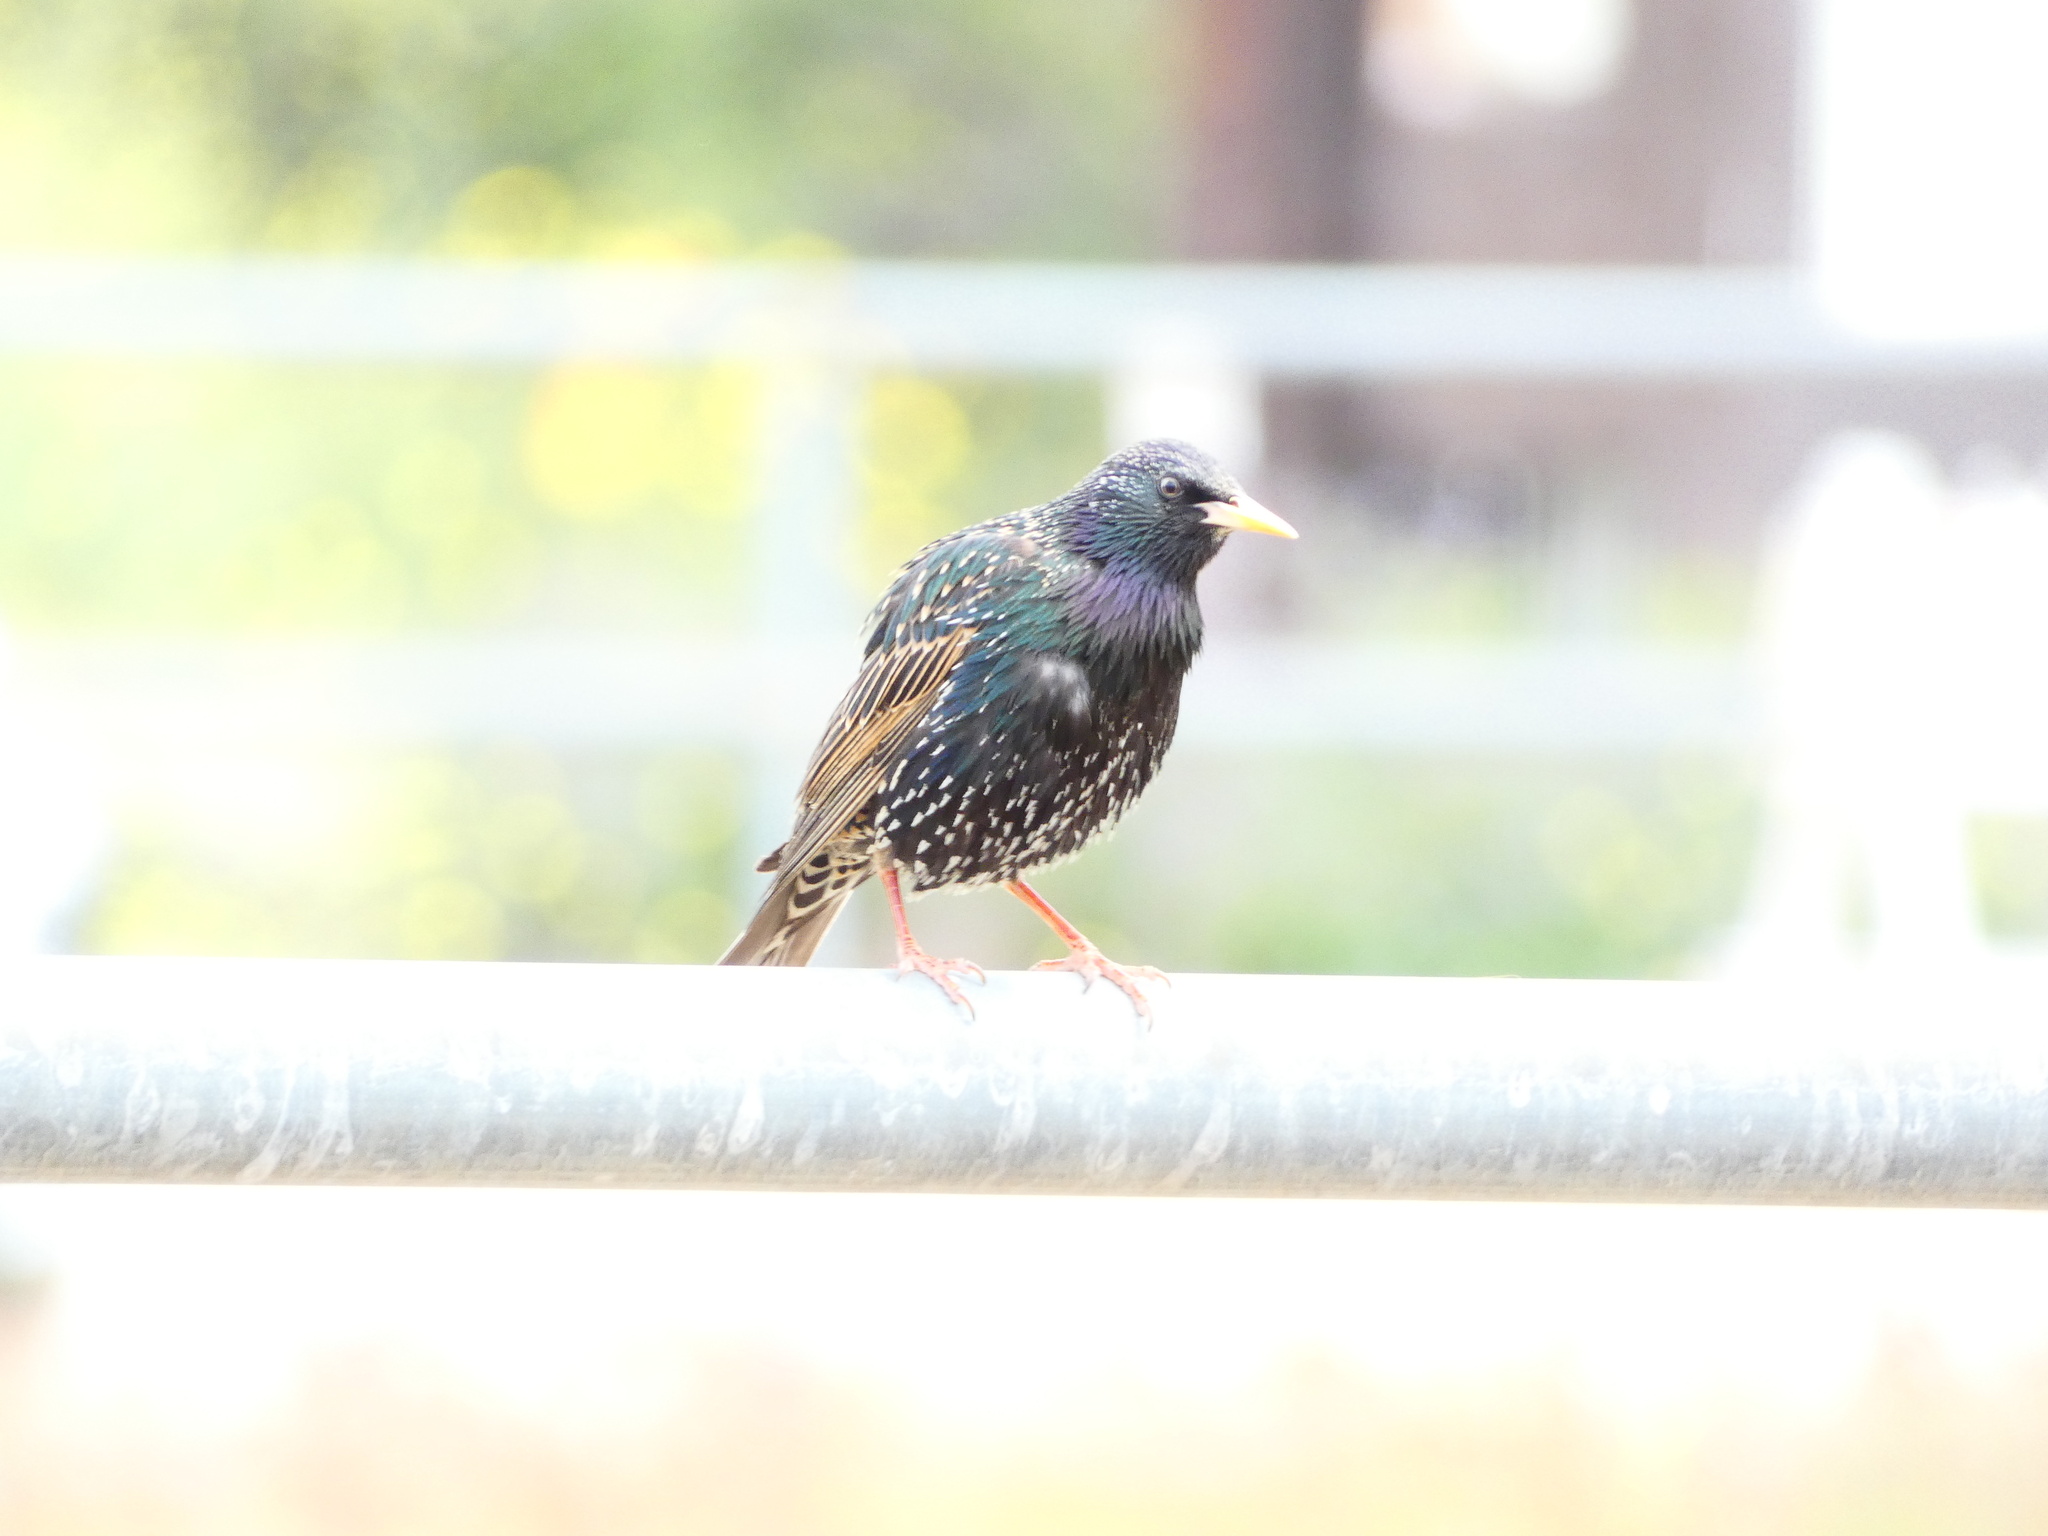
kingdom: Animalia
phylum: Chordata
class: Aves
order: Passeriformes
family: Sturnidae
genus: Sturnus
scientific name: Sturnus vulgaris
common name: Common starling
